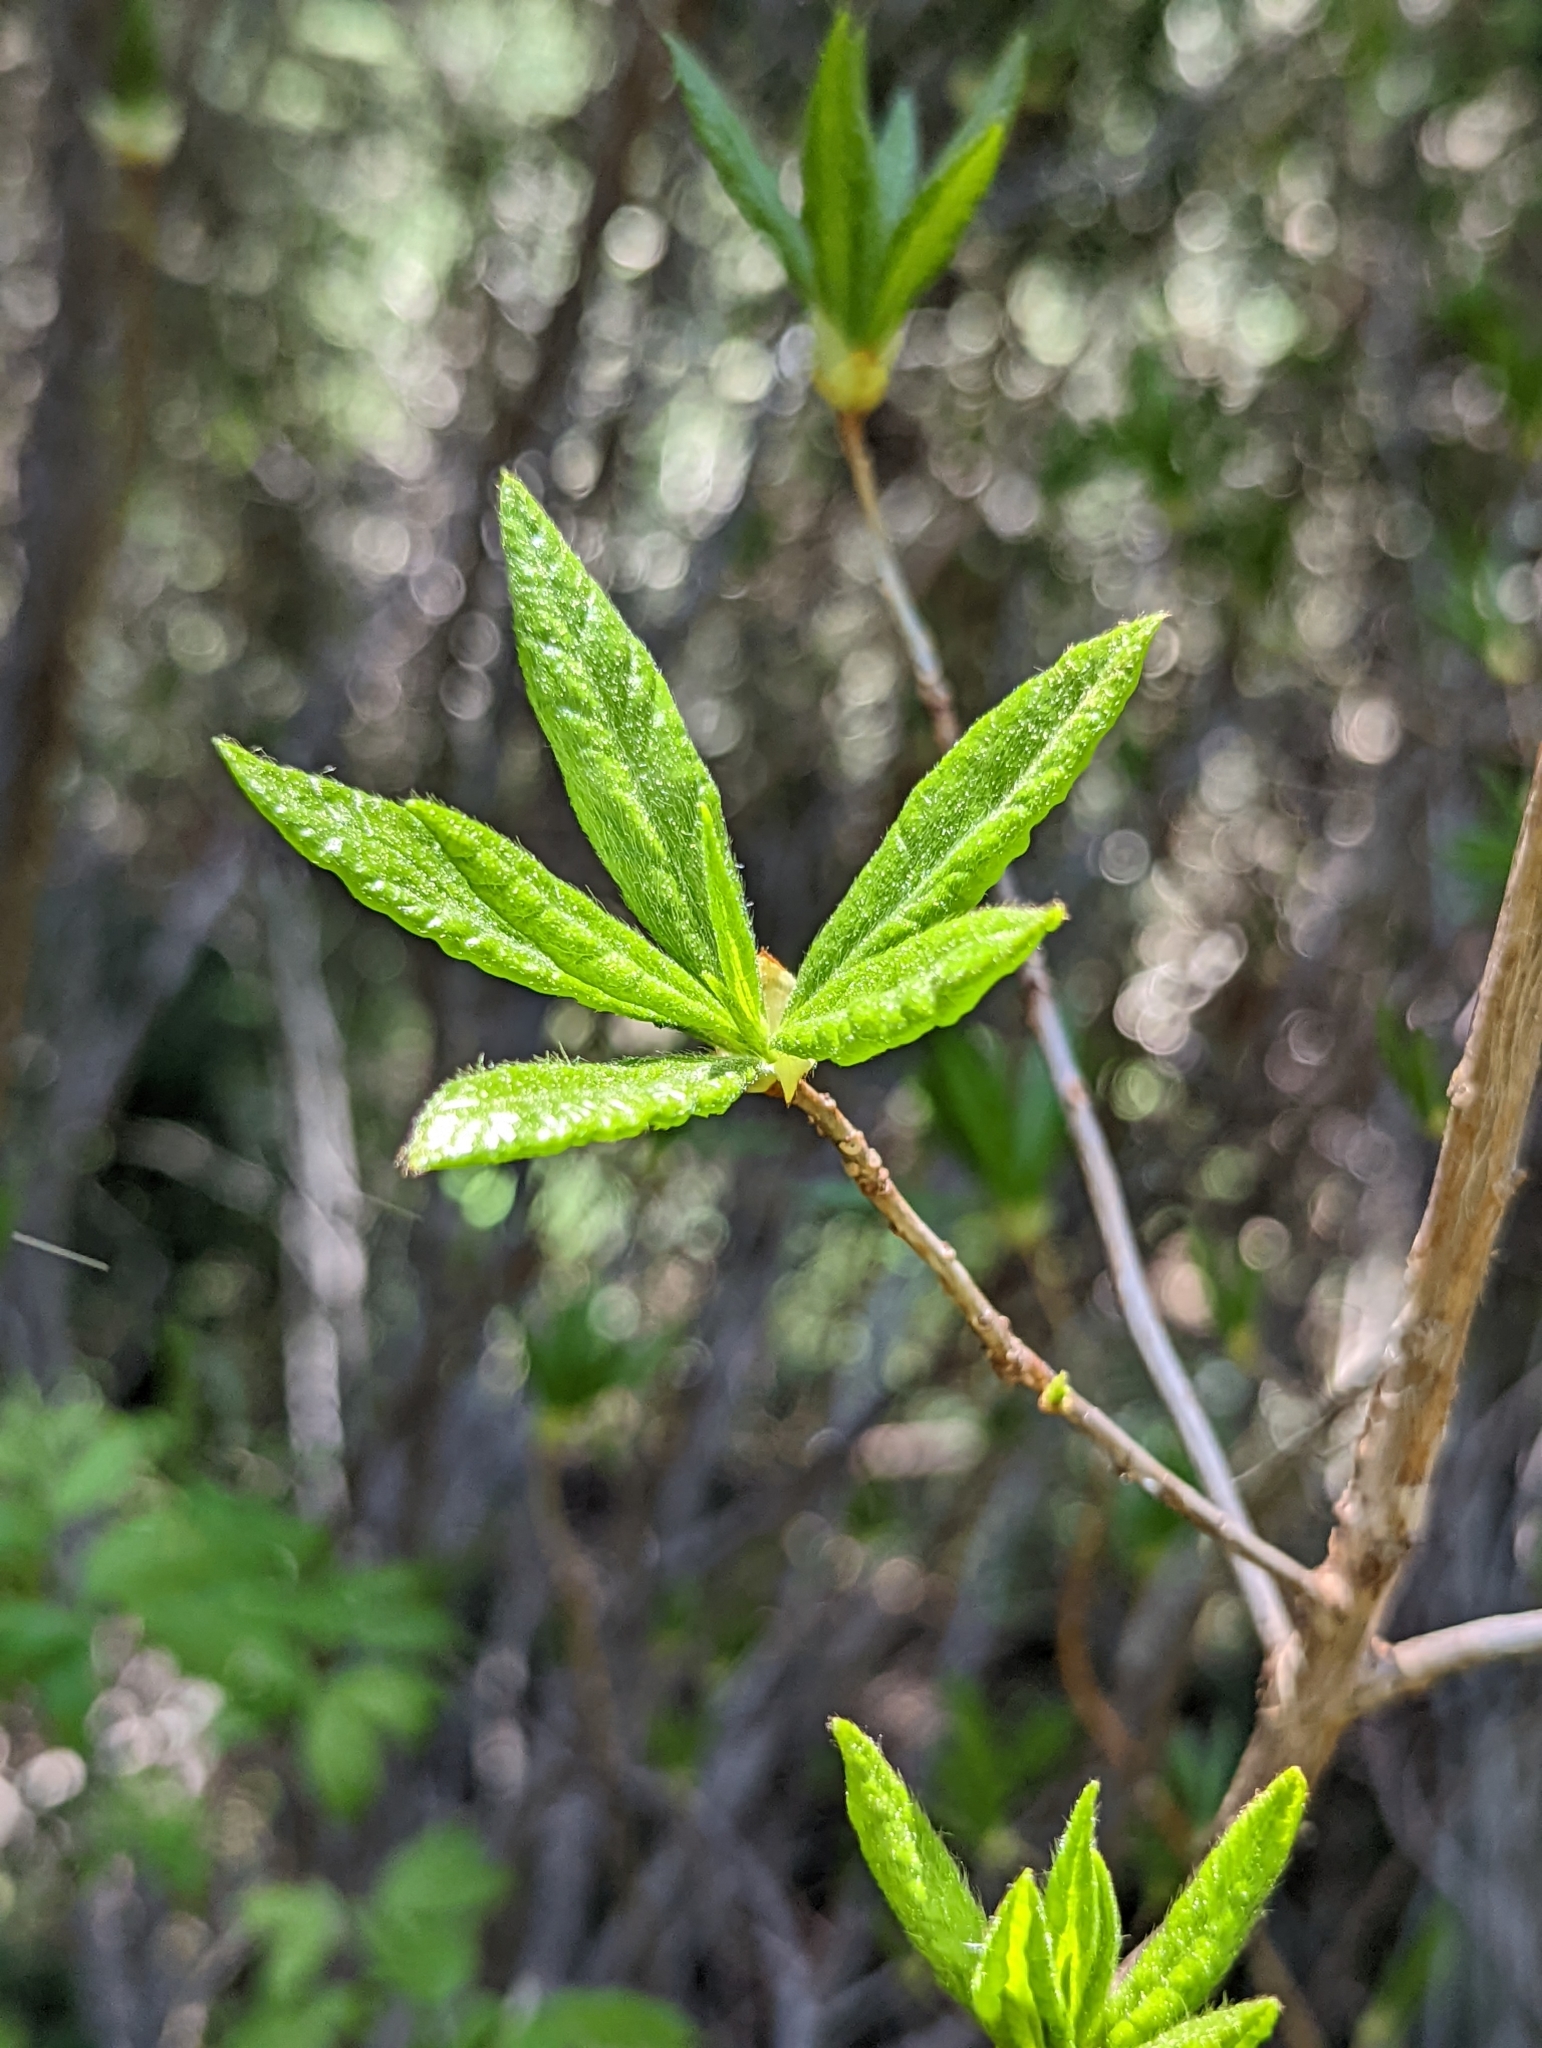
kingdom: Plantae
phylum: Tracheophyta
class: Magnoliopsida
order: Ericales
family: Ericaceae
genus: Rhododendron
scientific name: Rhododendron albiflorum
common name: White rhododendron
